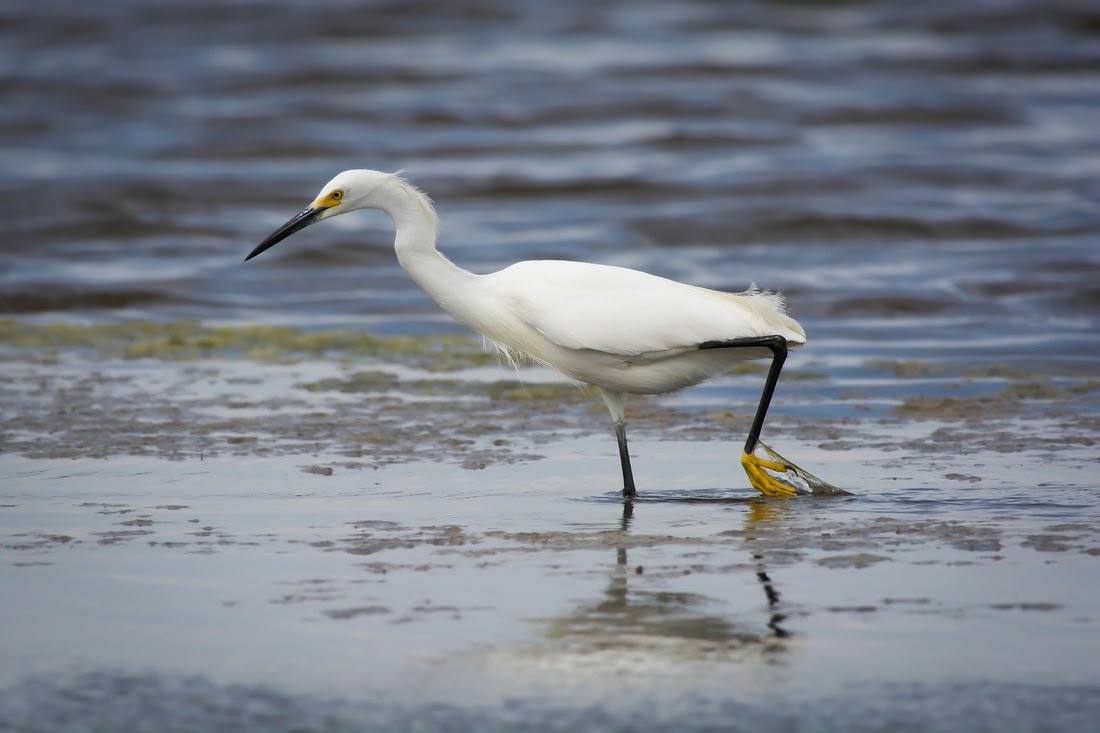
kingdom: Animalia
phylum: Chordata
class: Aves
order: Pelecaniformes
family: Ardeidae
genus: Egretta
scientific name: Egretta thula
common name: Snowy egret
